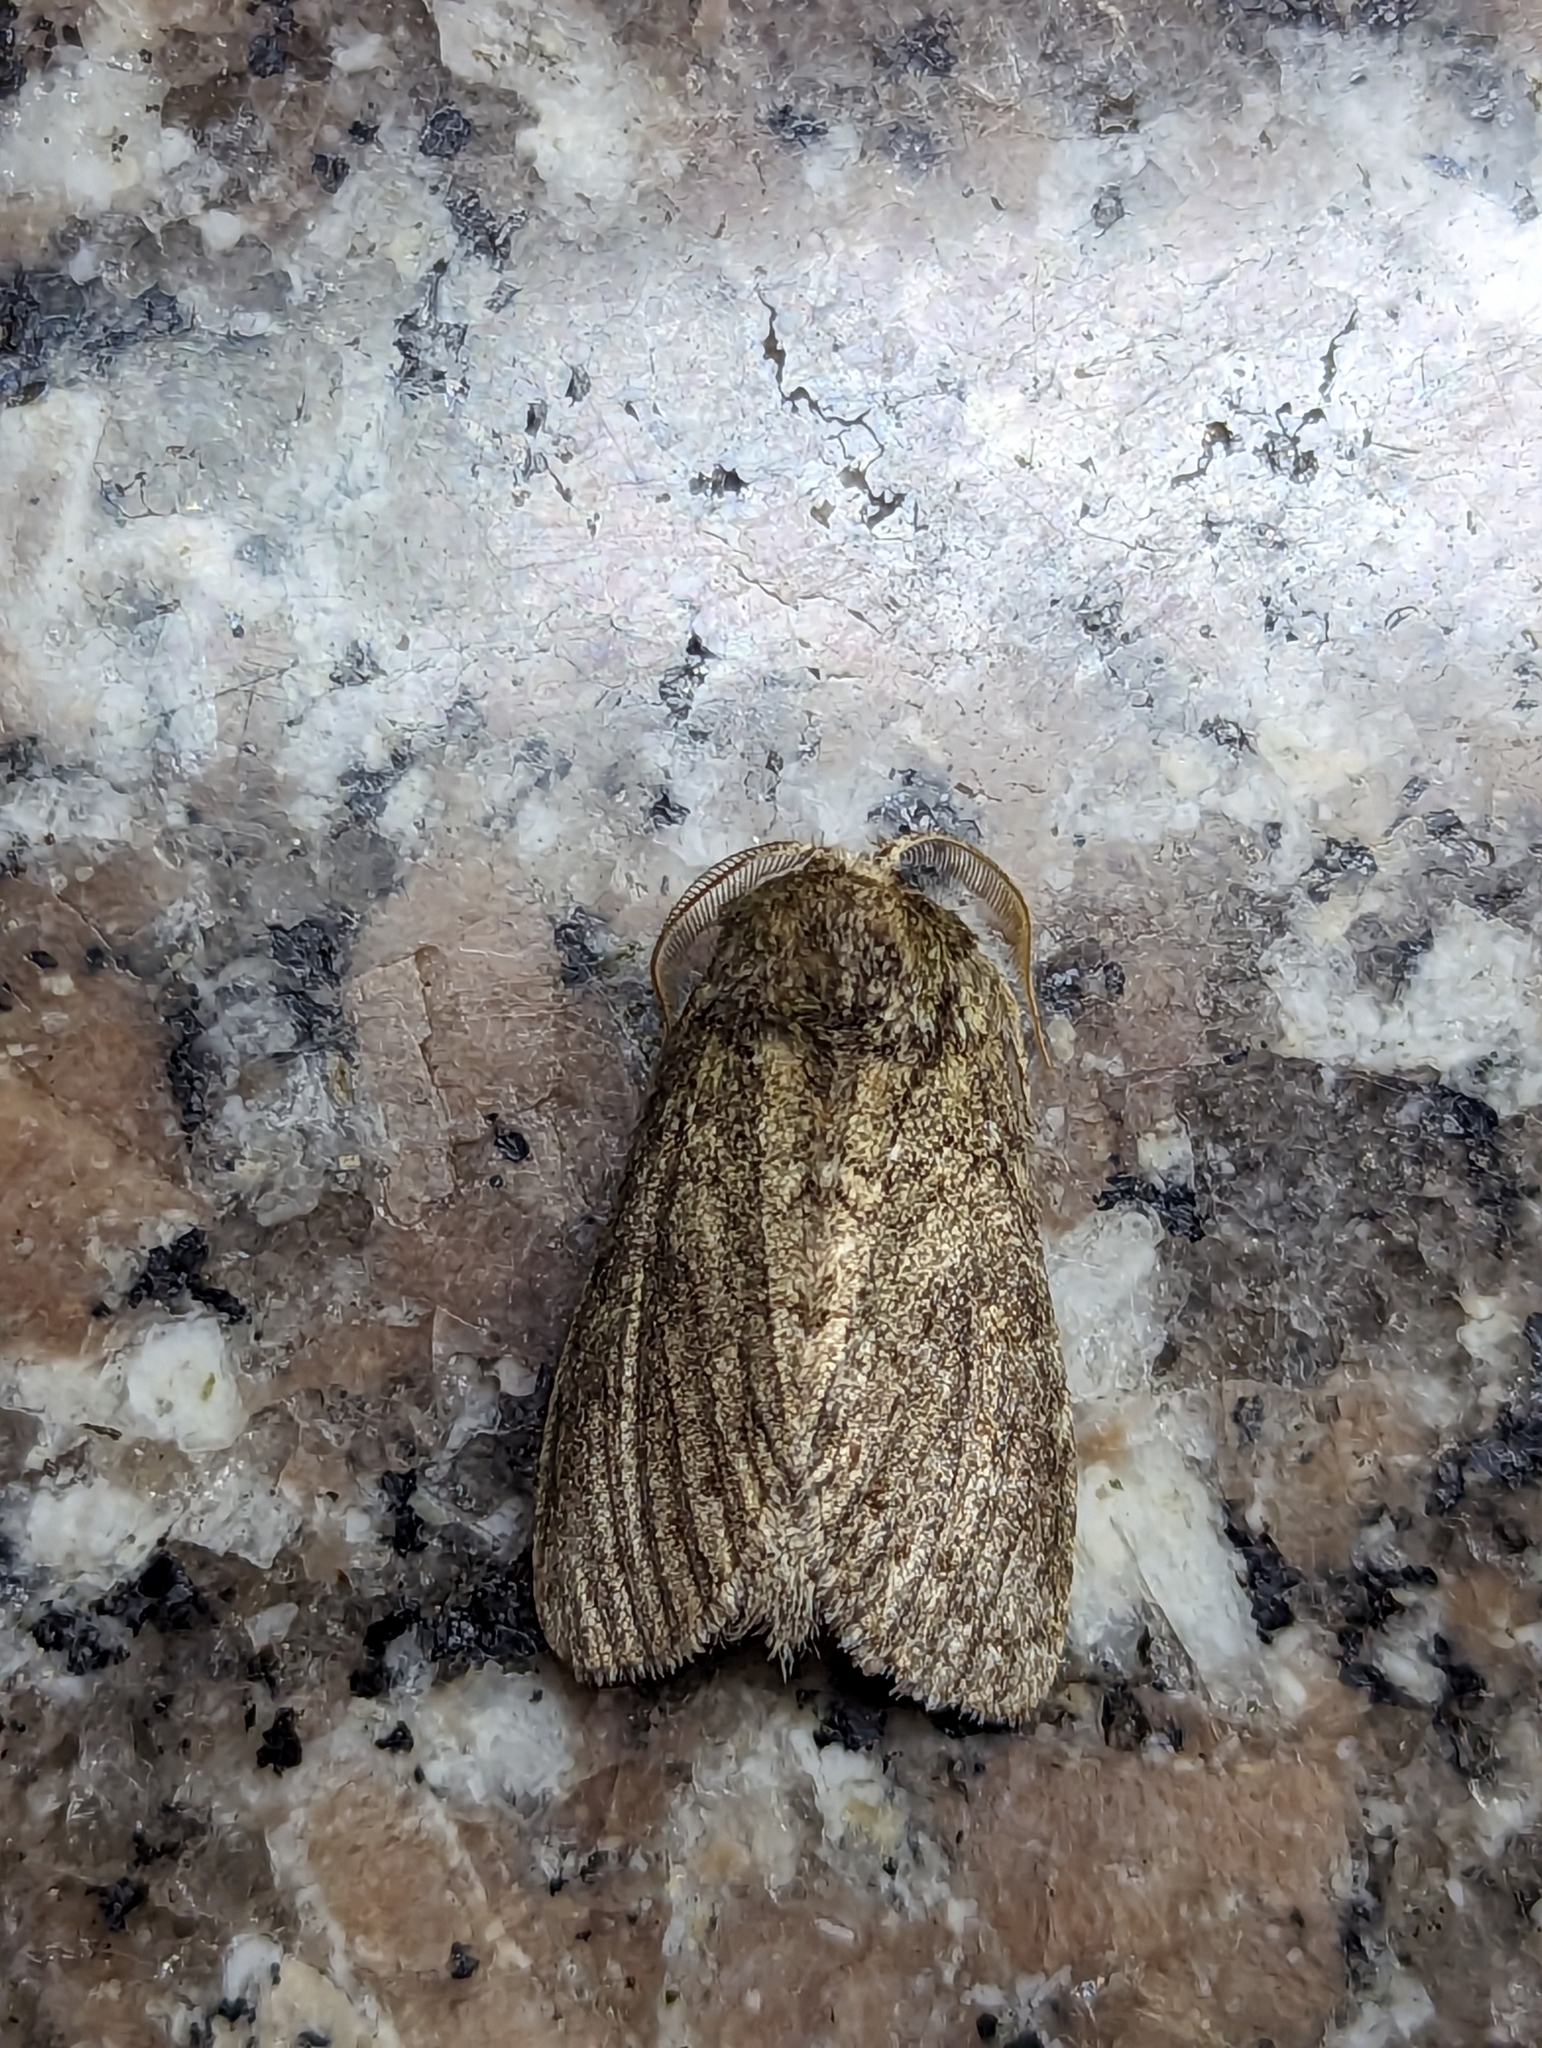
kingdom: Animalia
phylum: Arthropoda
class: Insecta
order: Lepidoptera
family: Notodontidae
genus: Disphragis
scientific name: Disphragis Cecrita guttivitta
